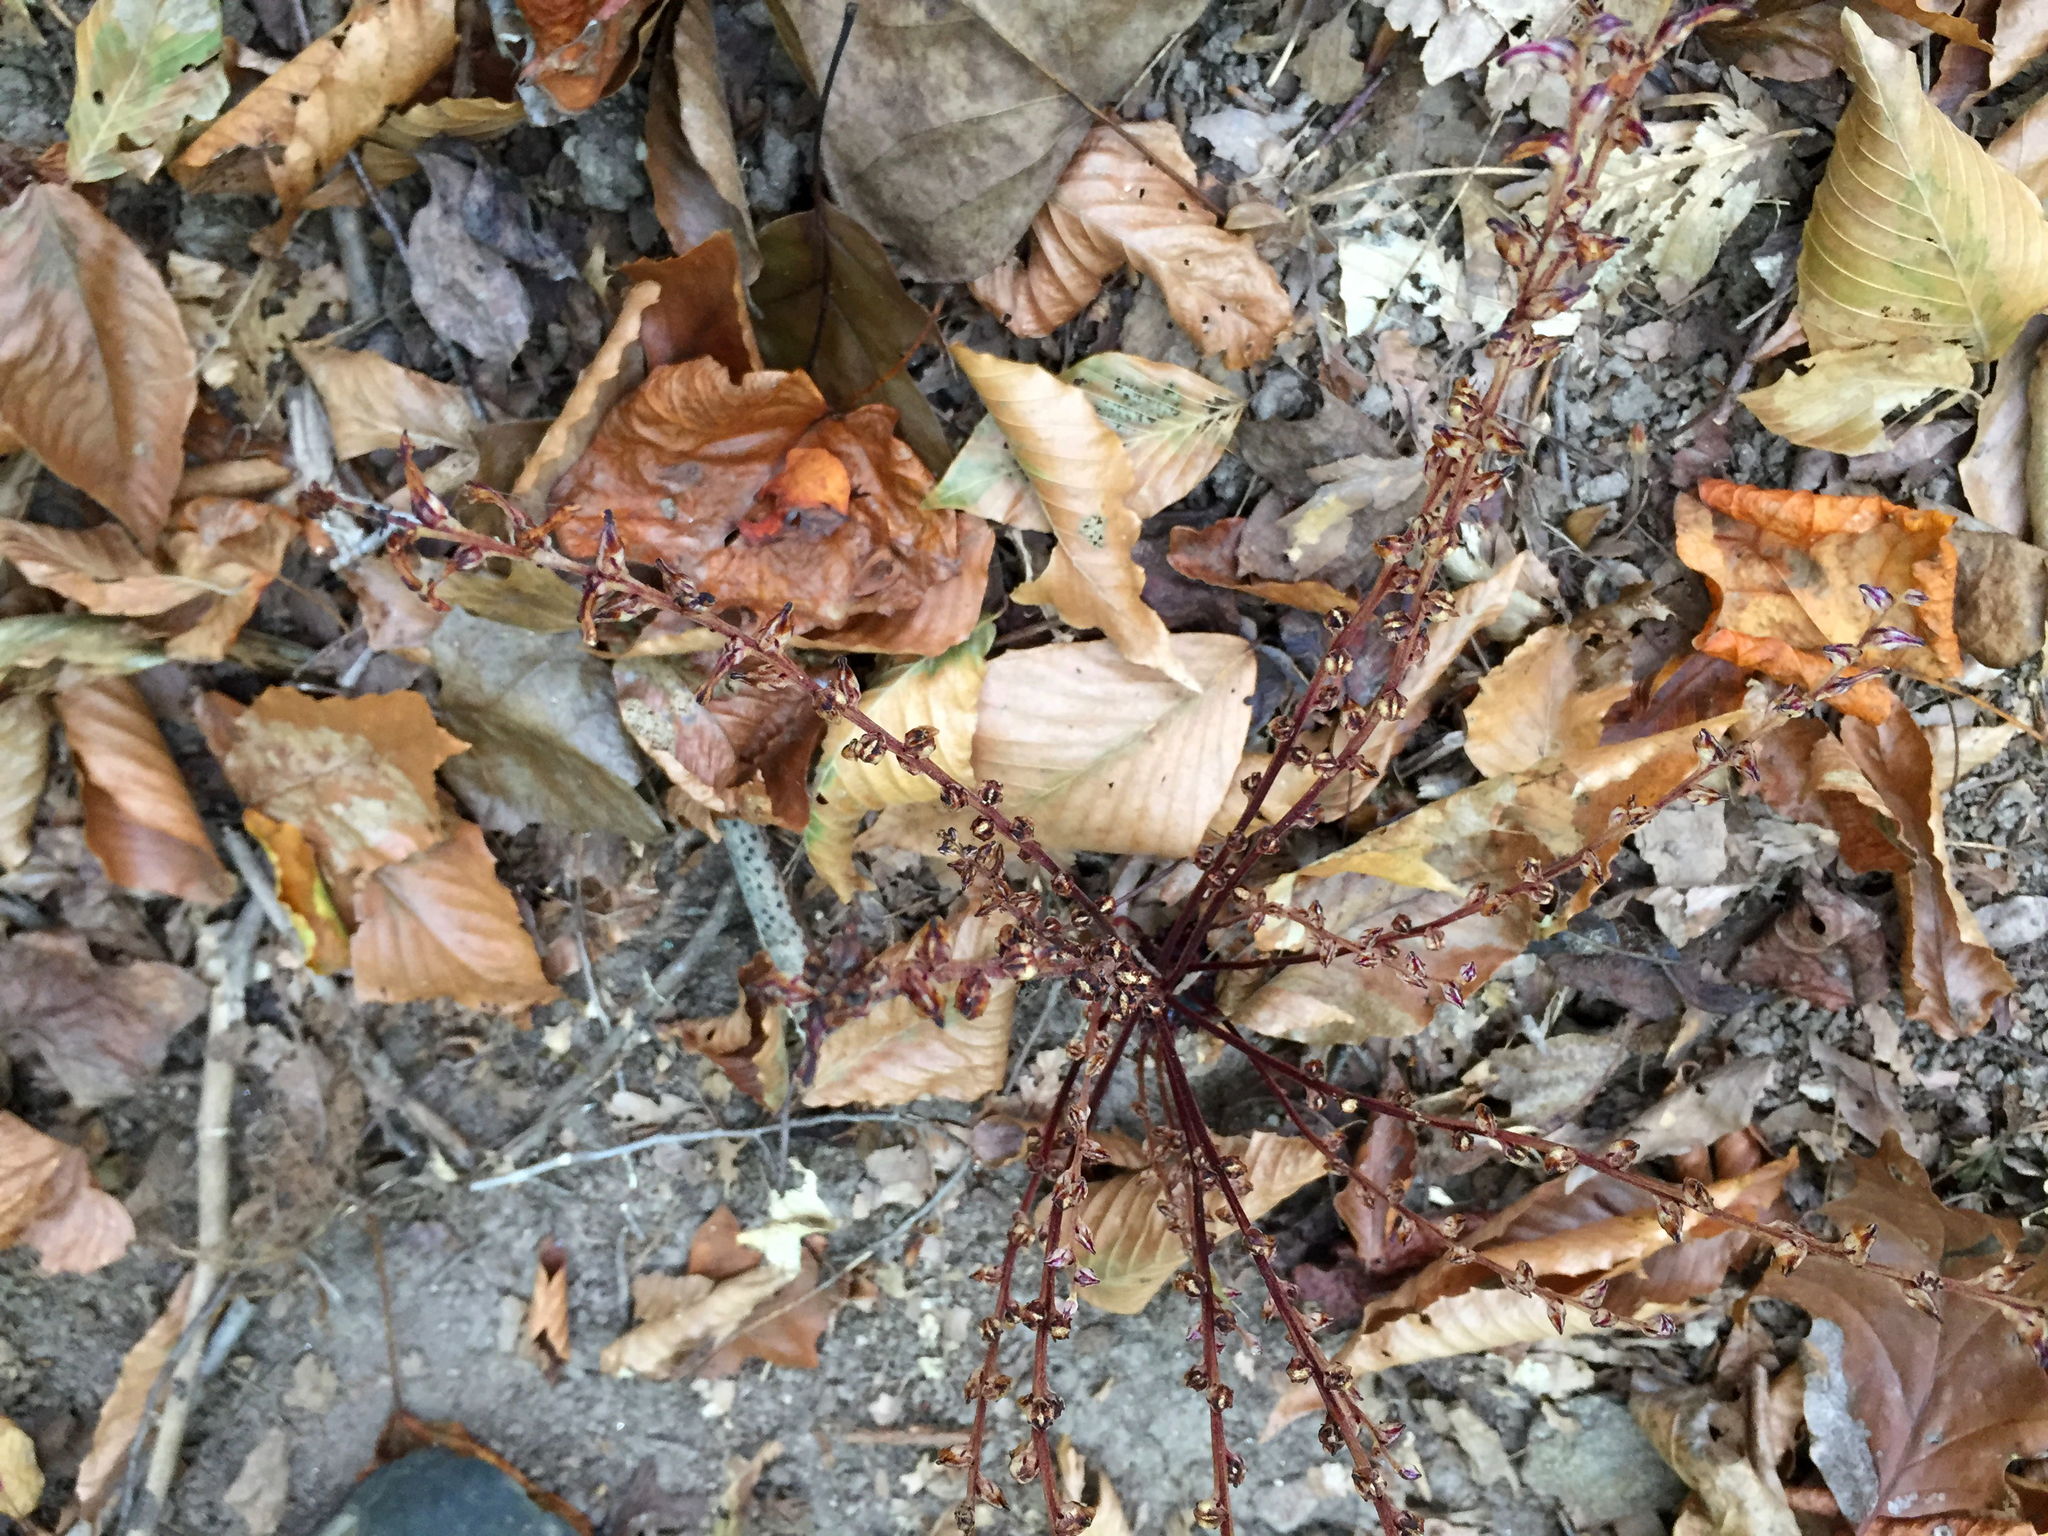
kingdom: Plantae
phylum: Tracheophyta
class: Magnoliopsida
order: Lamiales
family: Orobanchaceae
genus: Epifagus
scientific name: Epifagus virginiana
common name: Beechdrops
